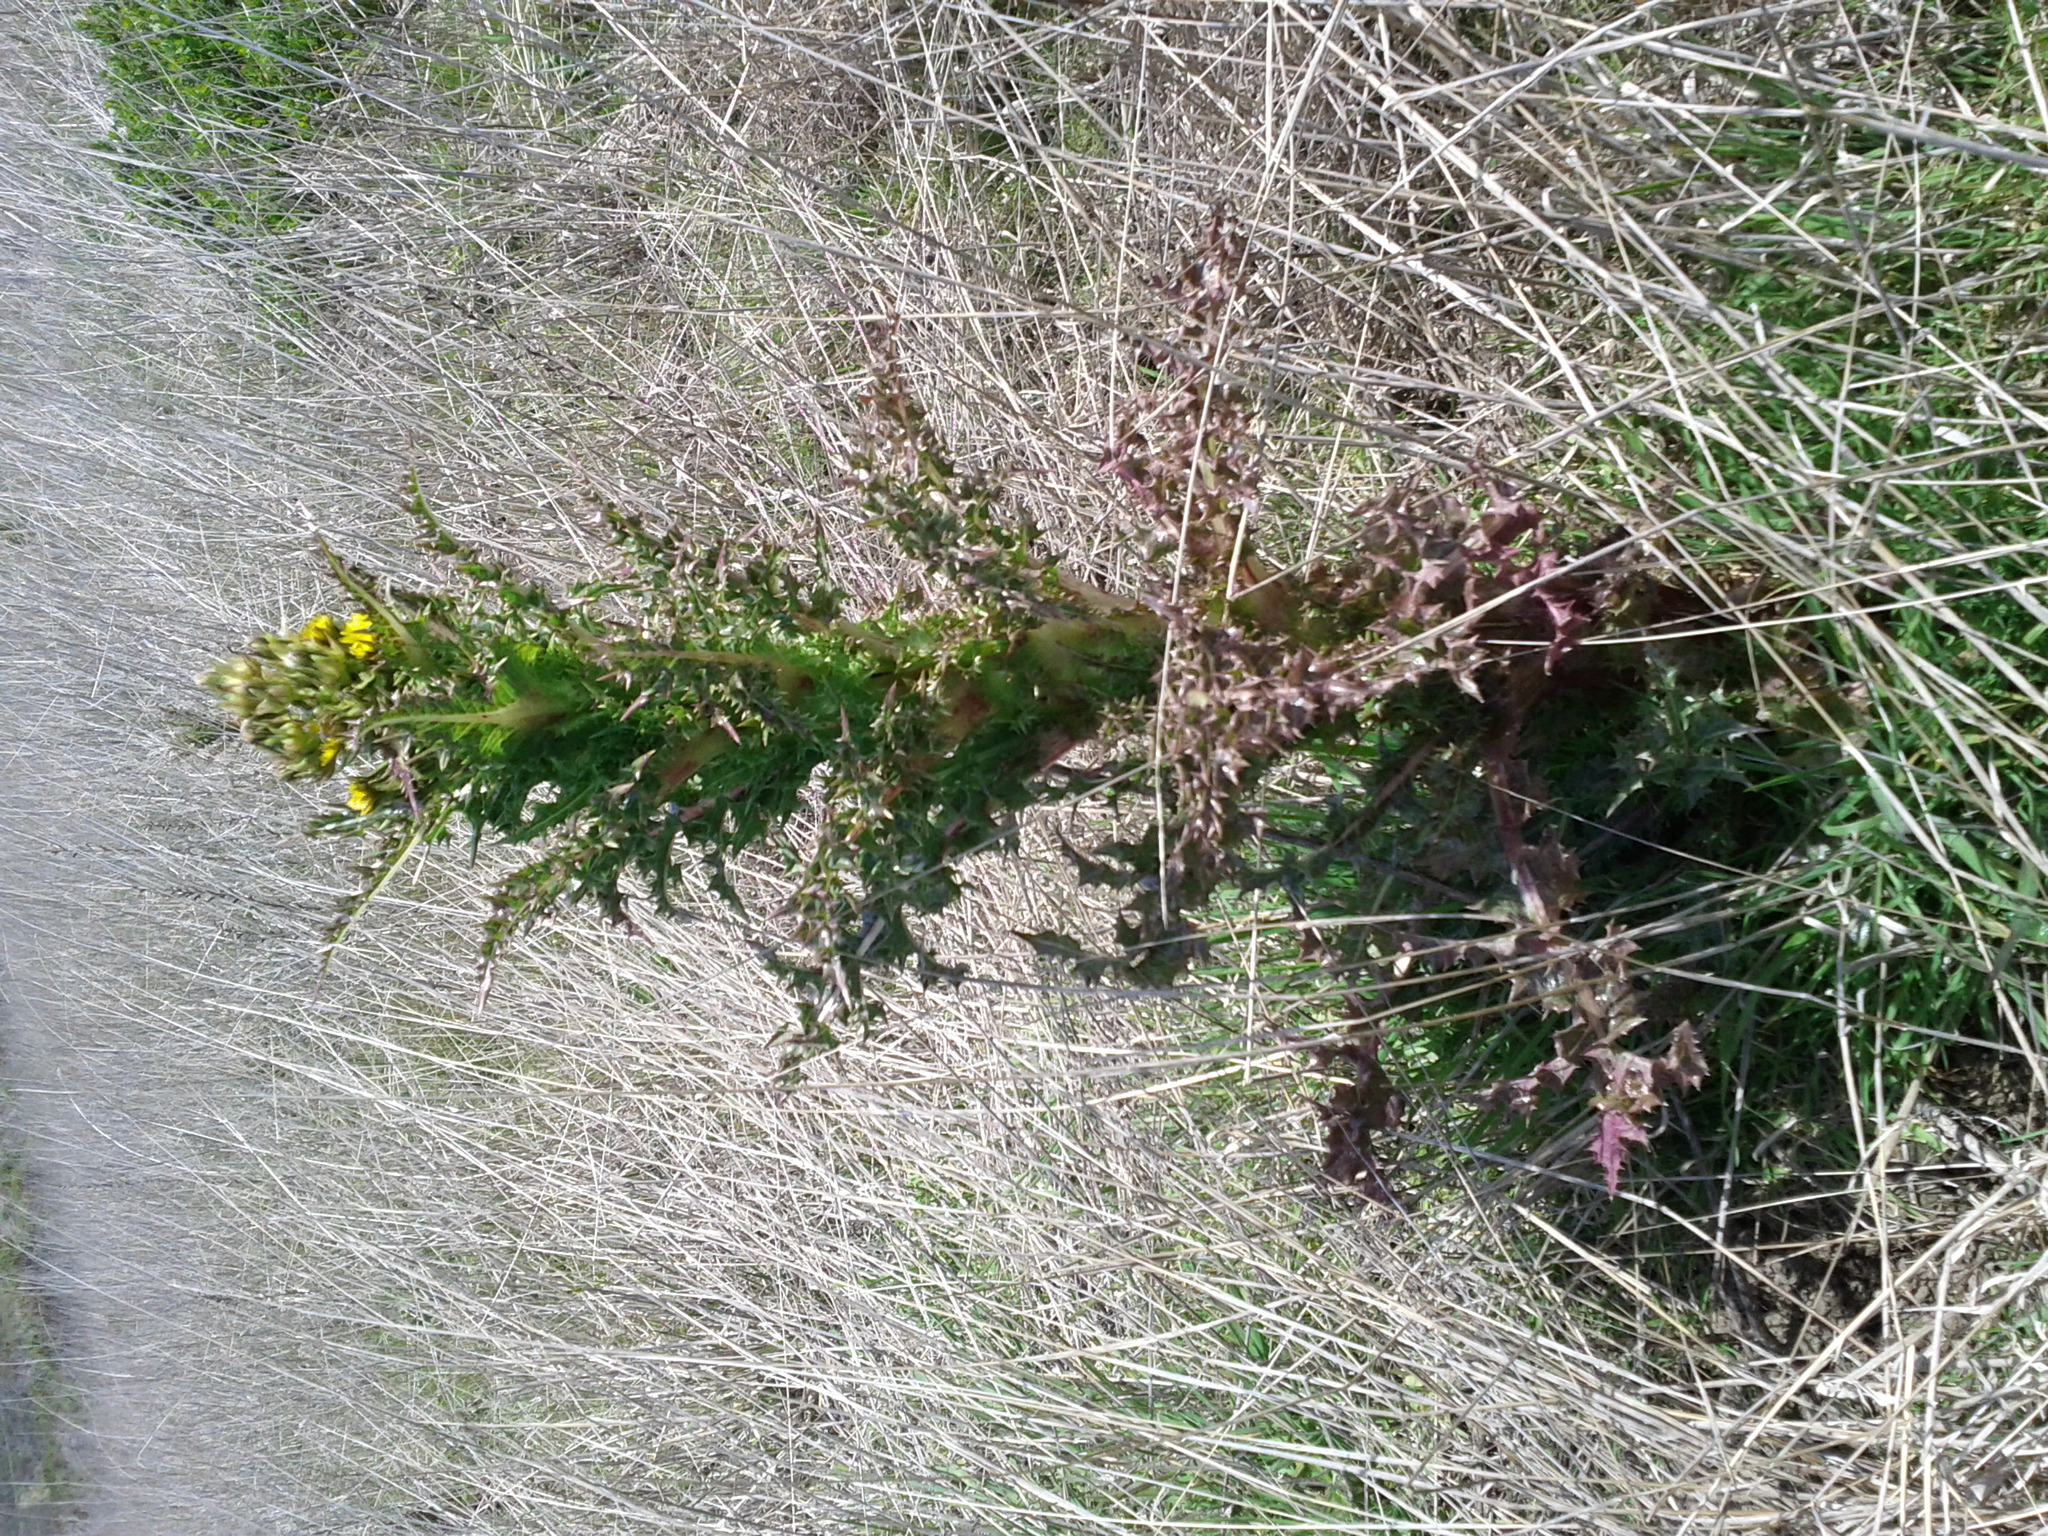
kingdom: Plantae
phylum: Tracheophyta
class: Magnoliopsida
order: Asterales
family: Asteraceae
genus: Sonchus
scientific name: Sonchus asper
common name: Prickly sow-thistle
